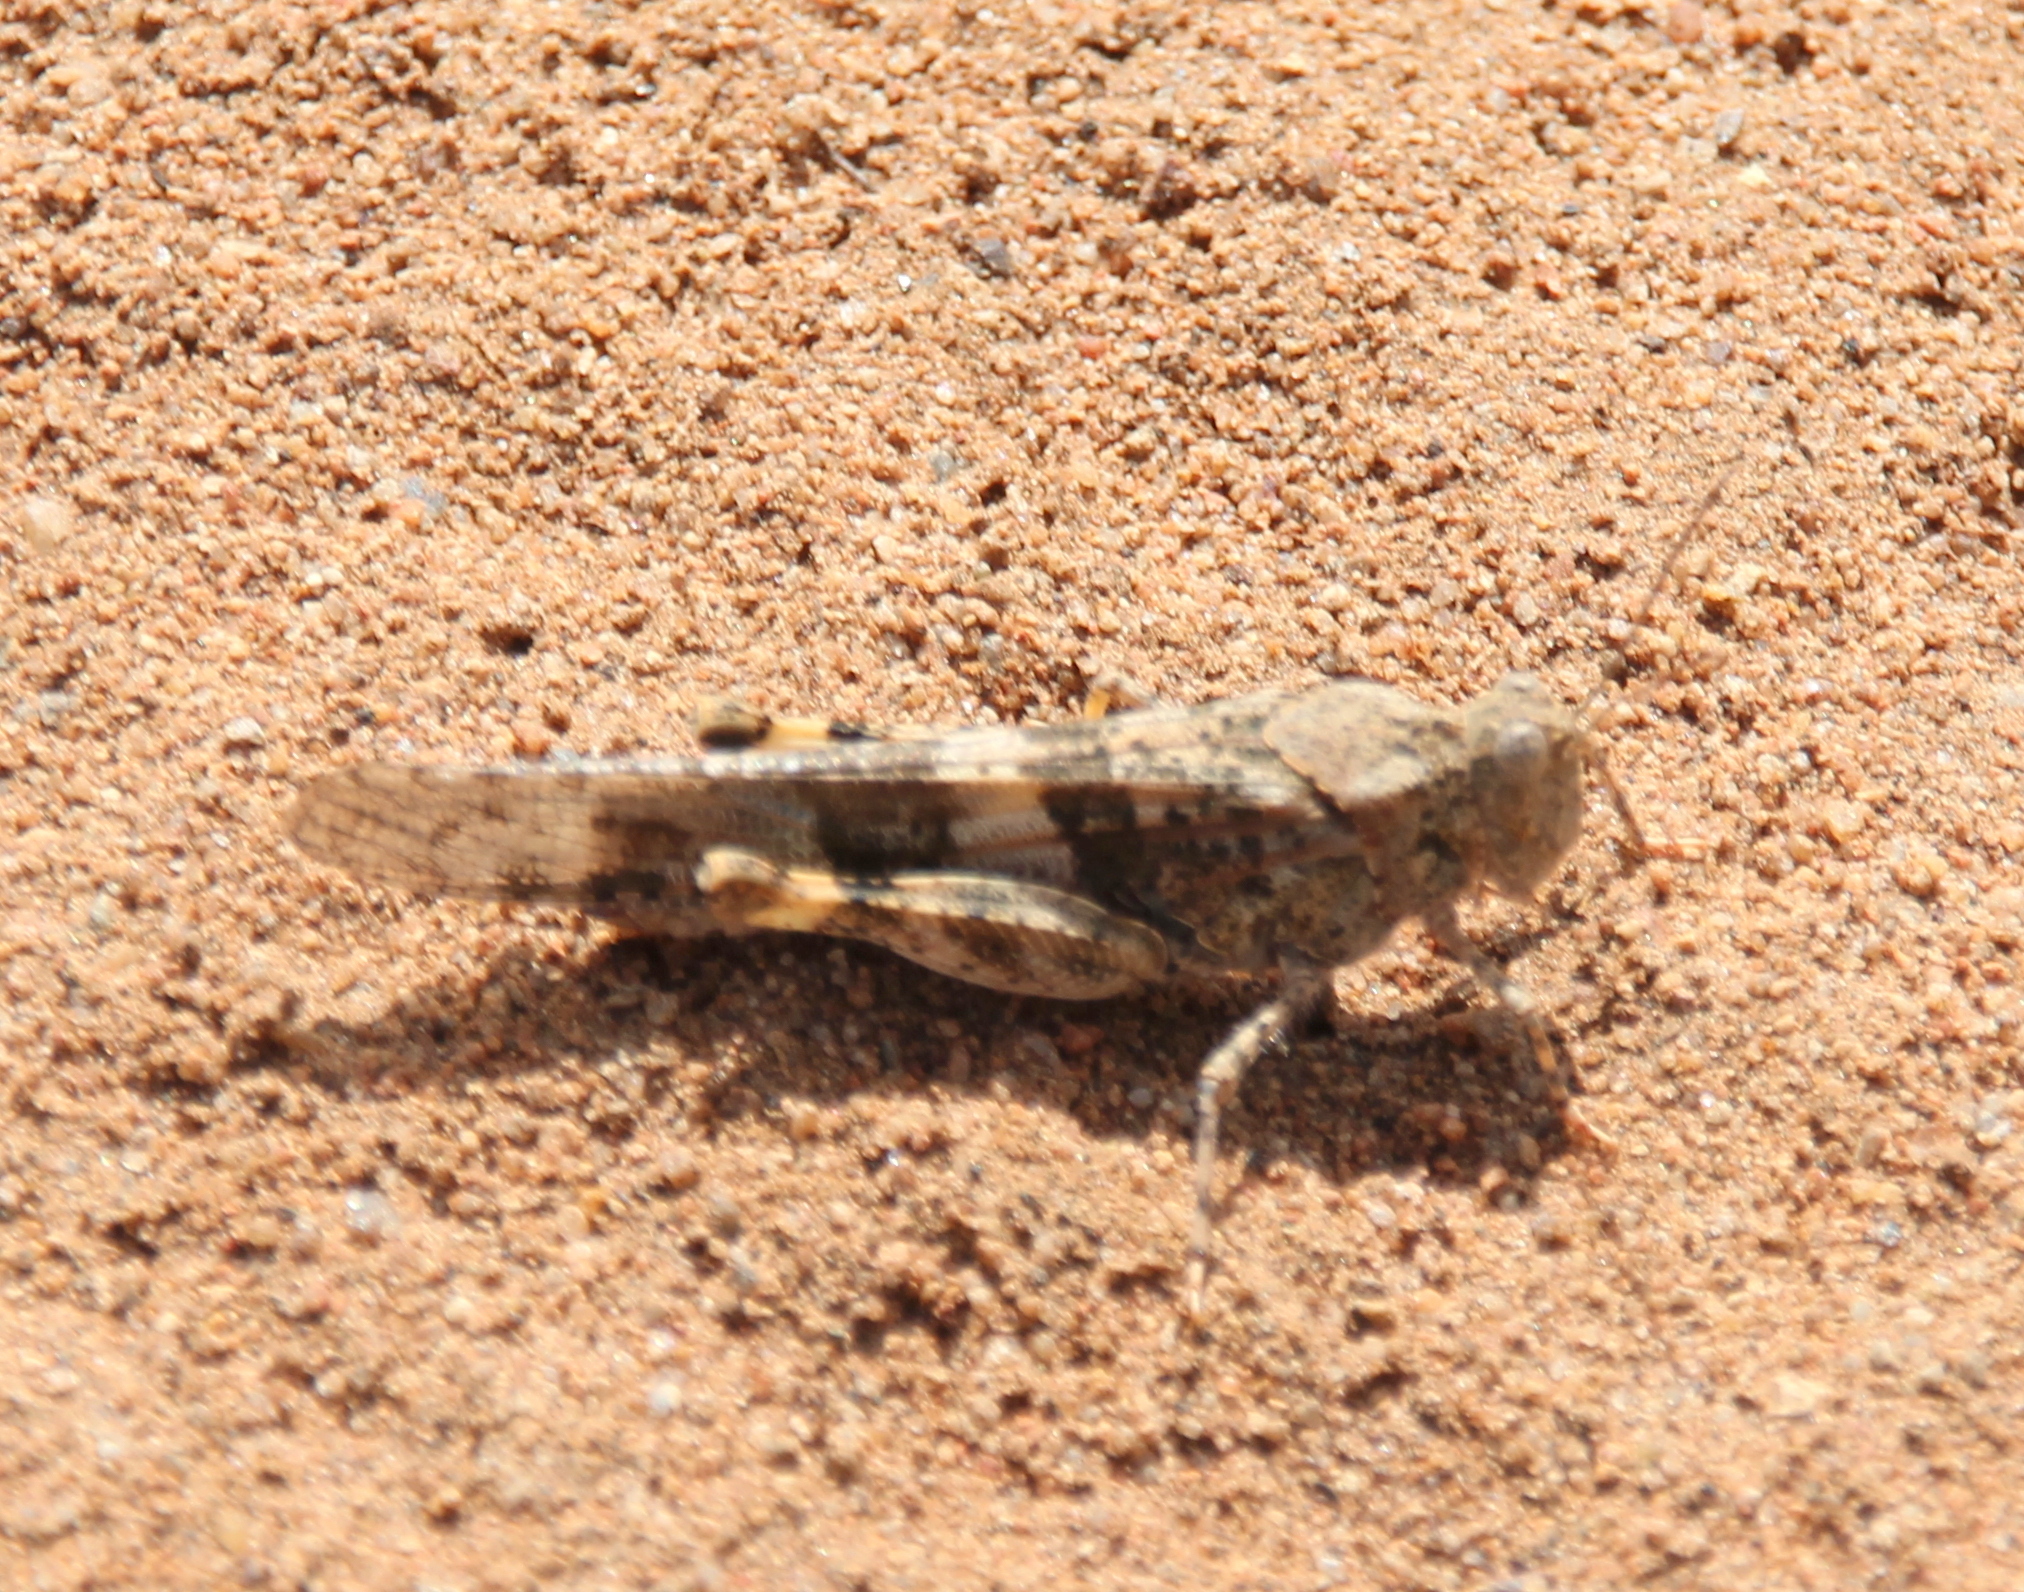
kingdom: Animalia
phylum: Arthropoda
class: Insecta
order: Orthoptera
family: Acrididae
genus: Trimerotropis
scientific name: Trimerotropis pallidipennis
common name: Pallid-winged grasshopper
